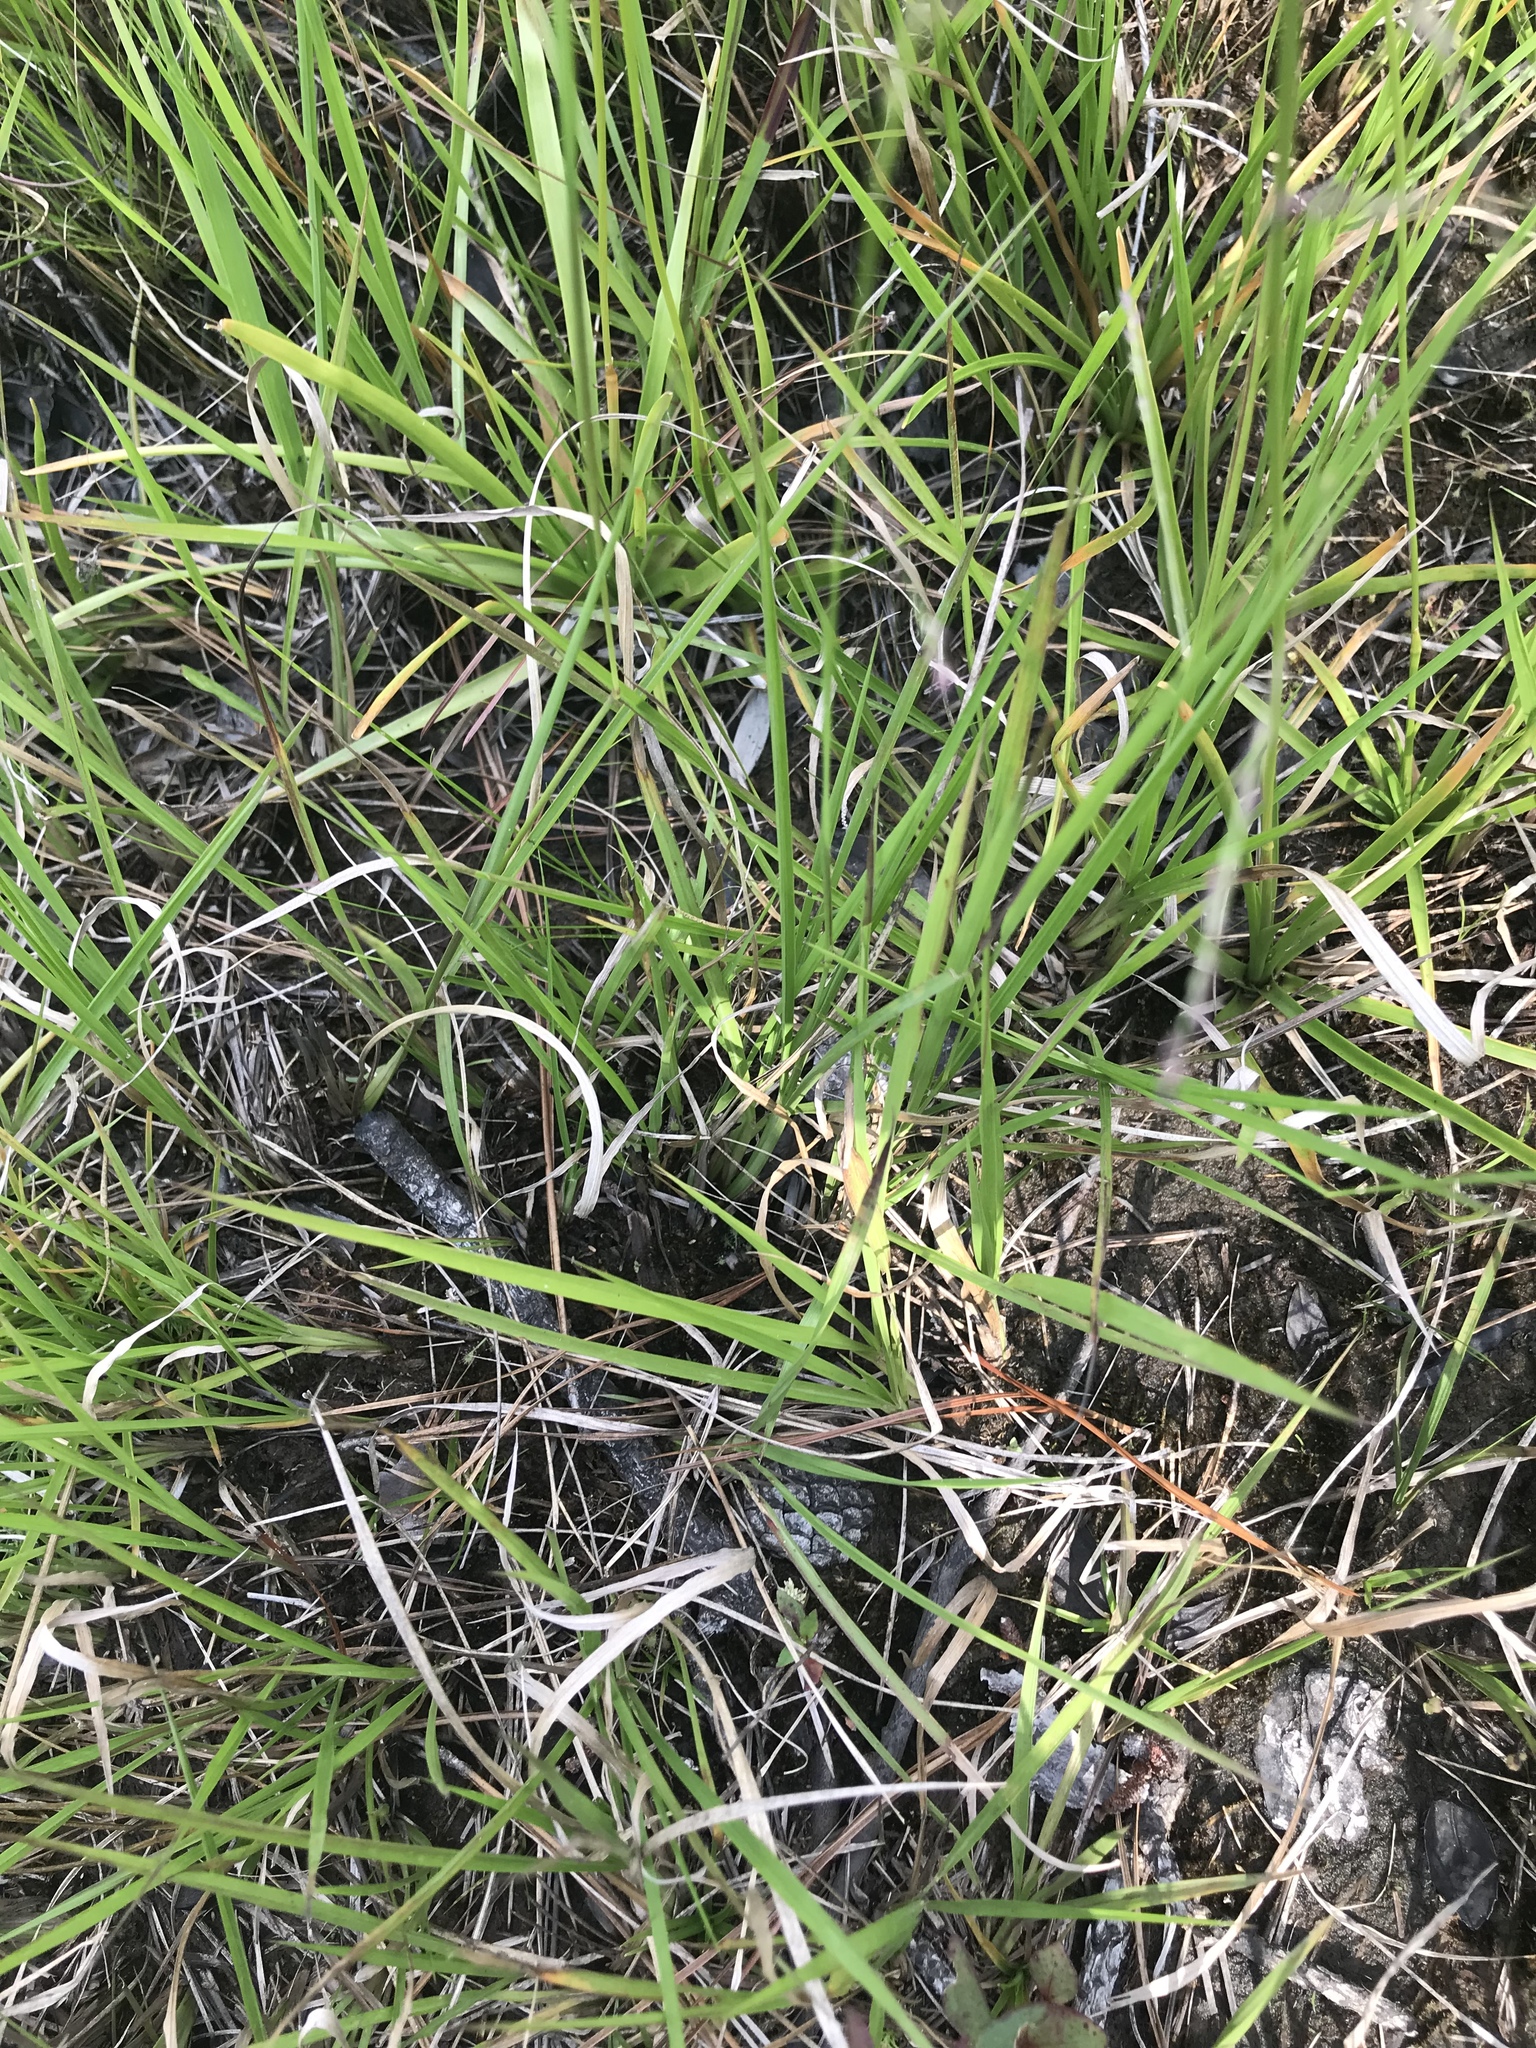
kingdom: Plantae
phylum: Tracheophyta
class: Liliopsida
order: Poales
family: Eriocaulaceae
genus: Eriocaulon
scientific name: Eriocaulon decangulare
